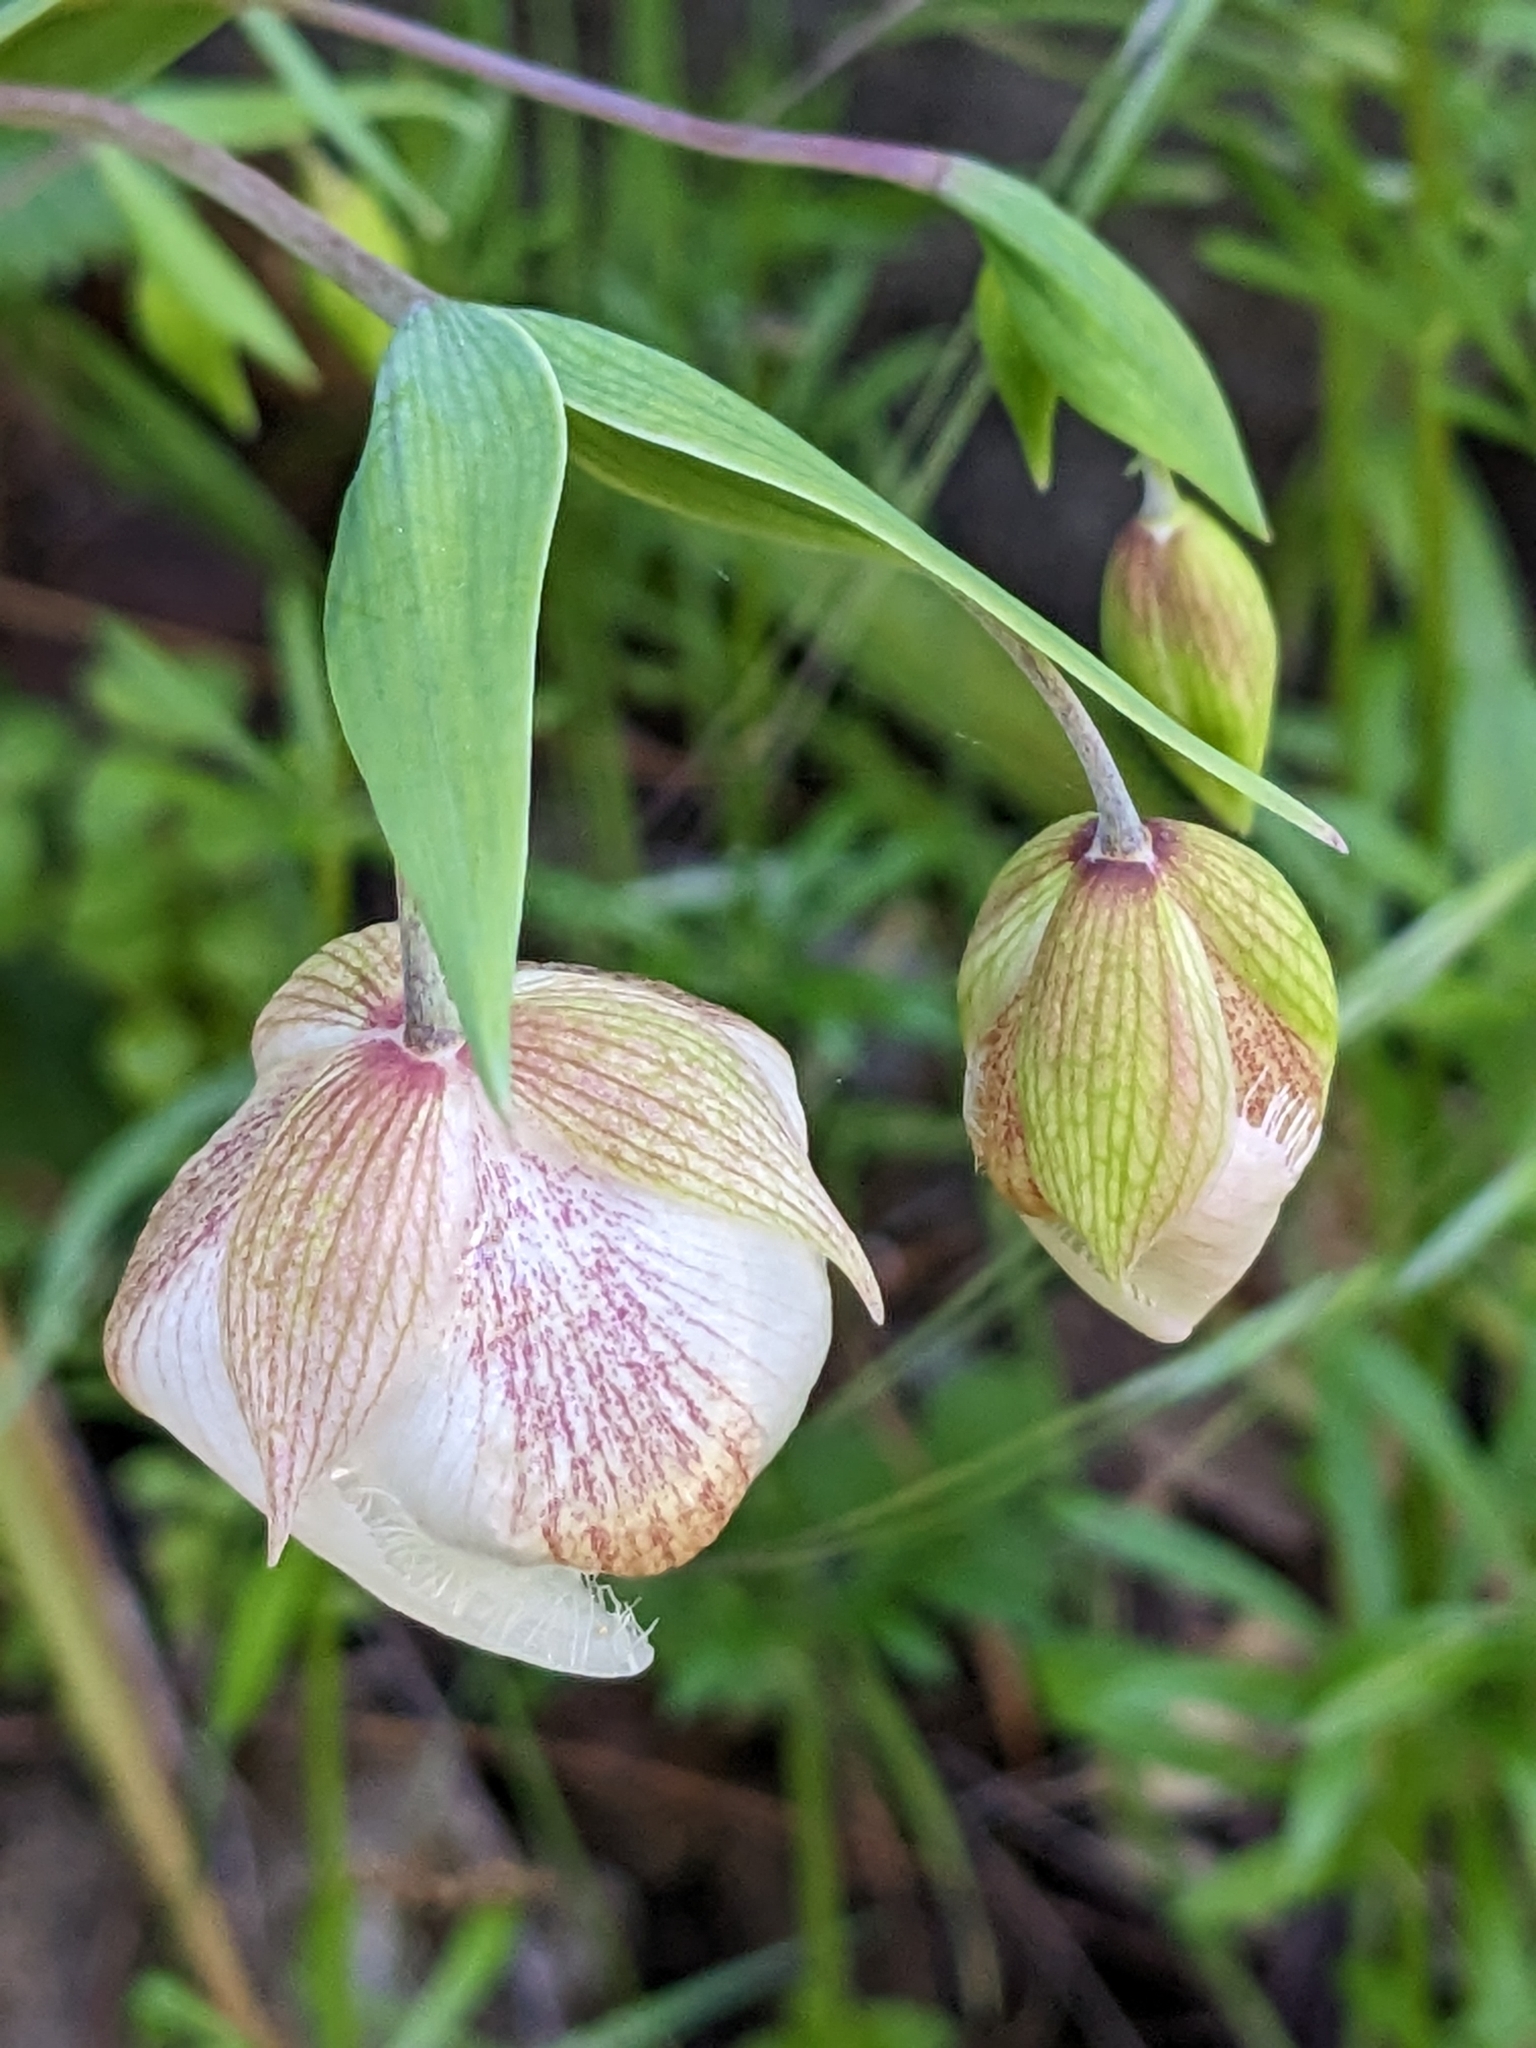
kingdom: Plantae
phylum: Tracheophyta
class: Liliopsida
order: Liliales
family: Liliaceae
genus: Calochortus
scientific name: Calochortus albus
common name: Fairy-lantern
